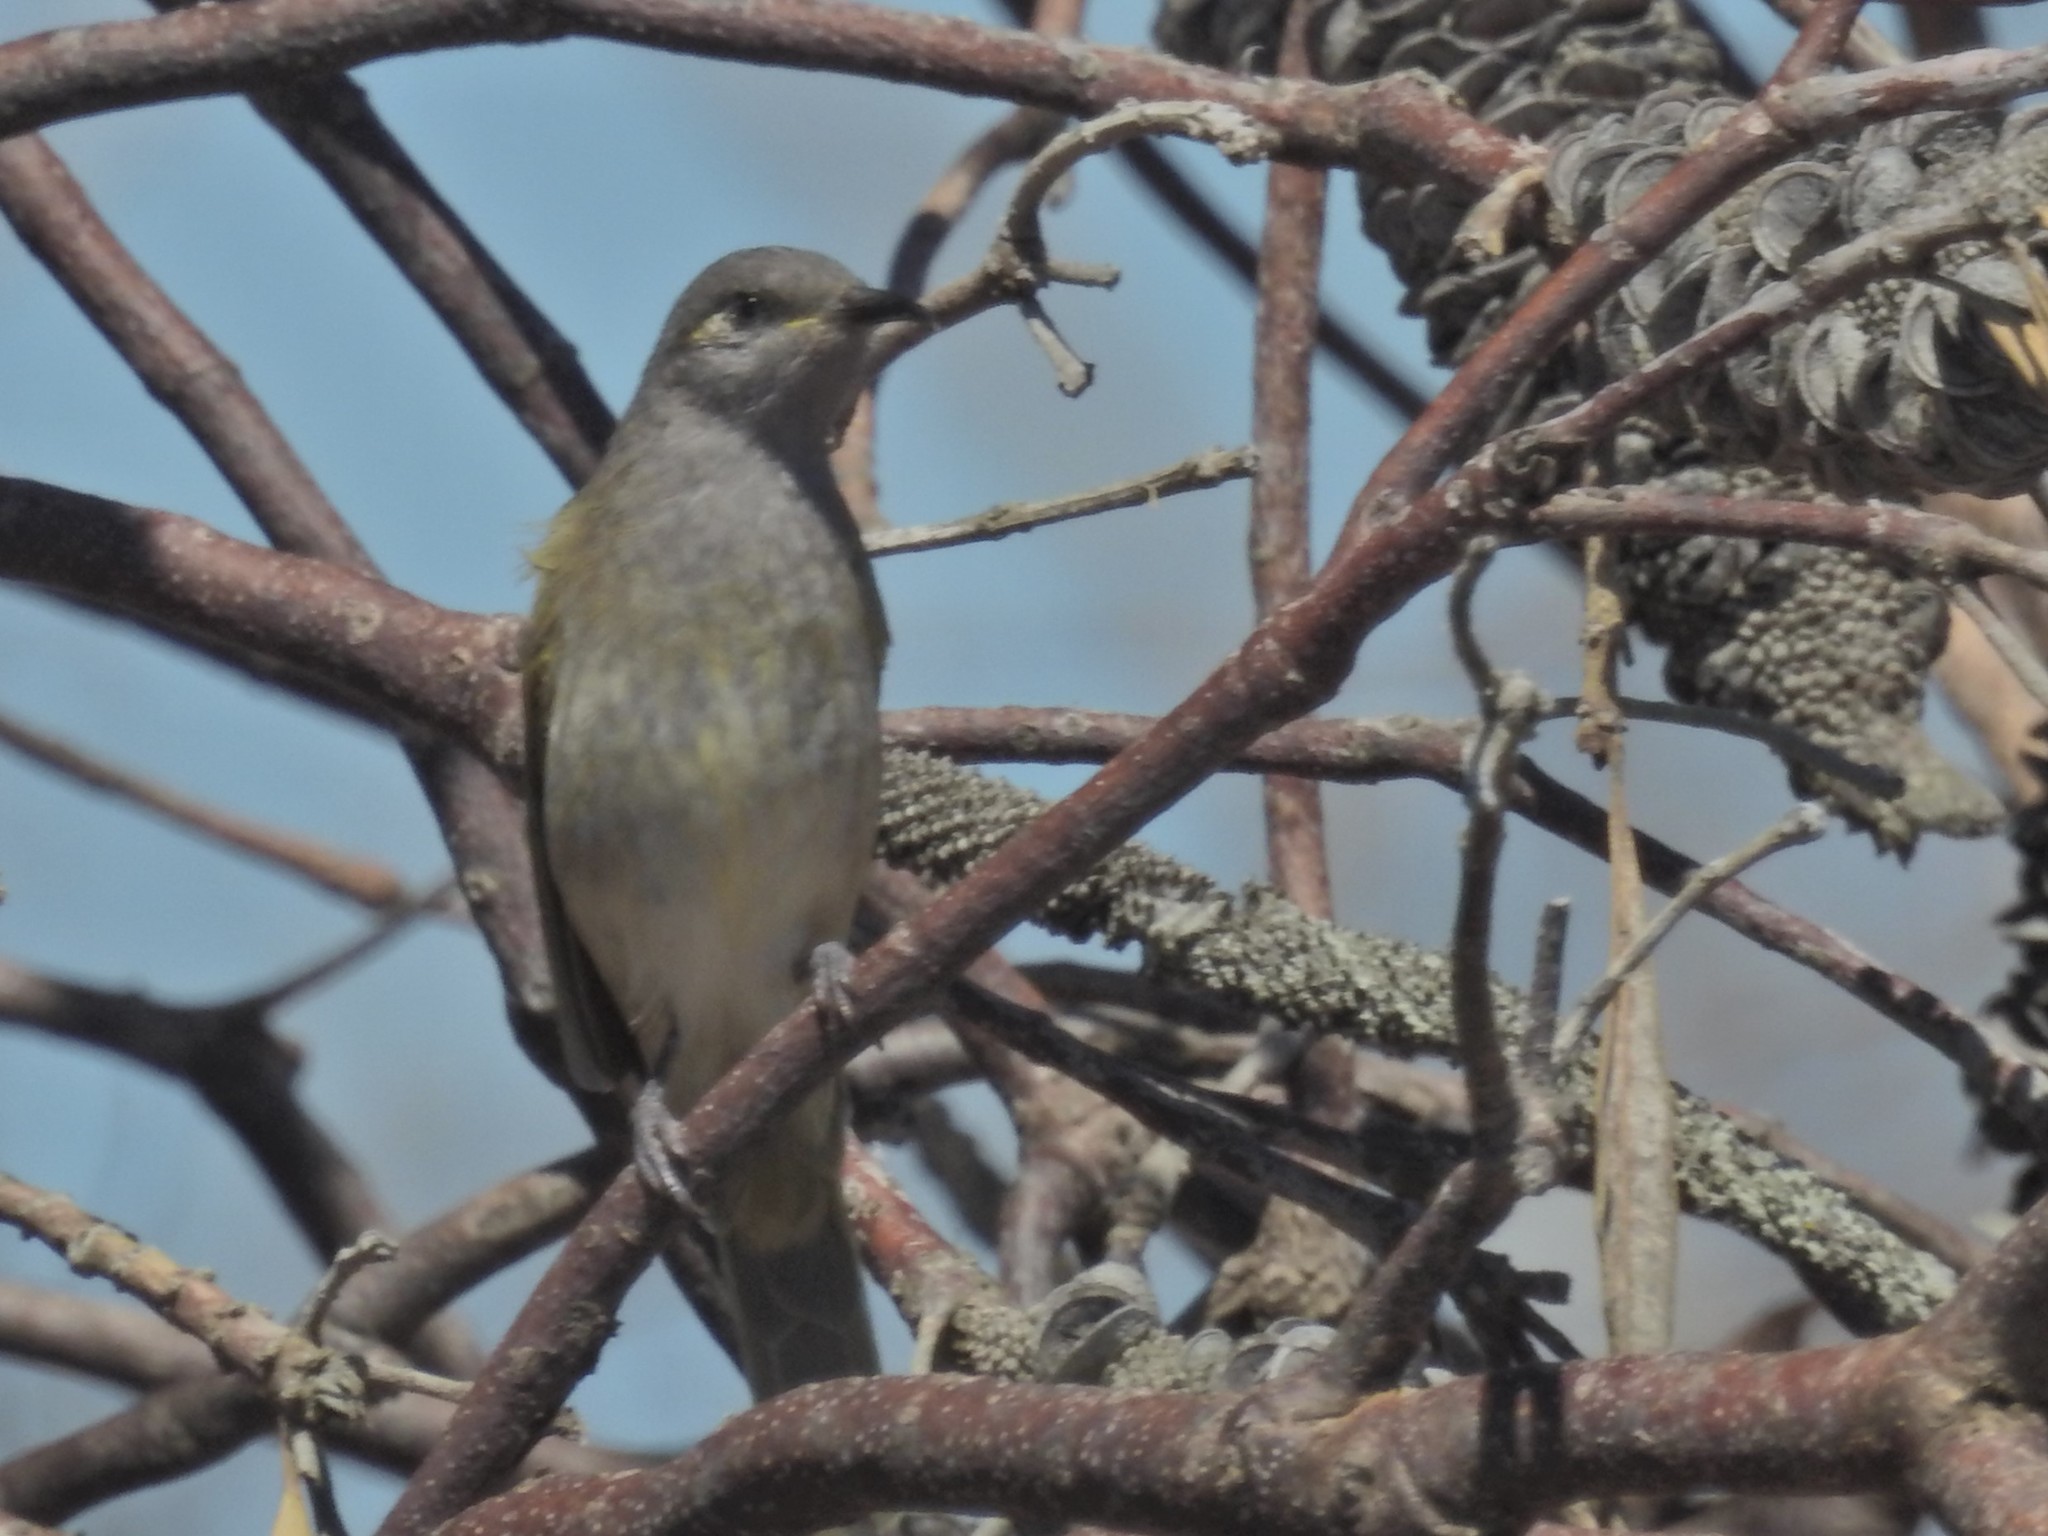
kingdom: Animalia
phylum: Chordata
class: Aves
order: Passeriformes
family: Meliphagidae
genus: Lichmera
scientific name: Lichmera indistincta
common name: Brown honeyeater
